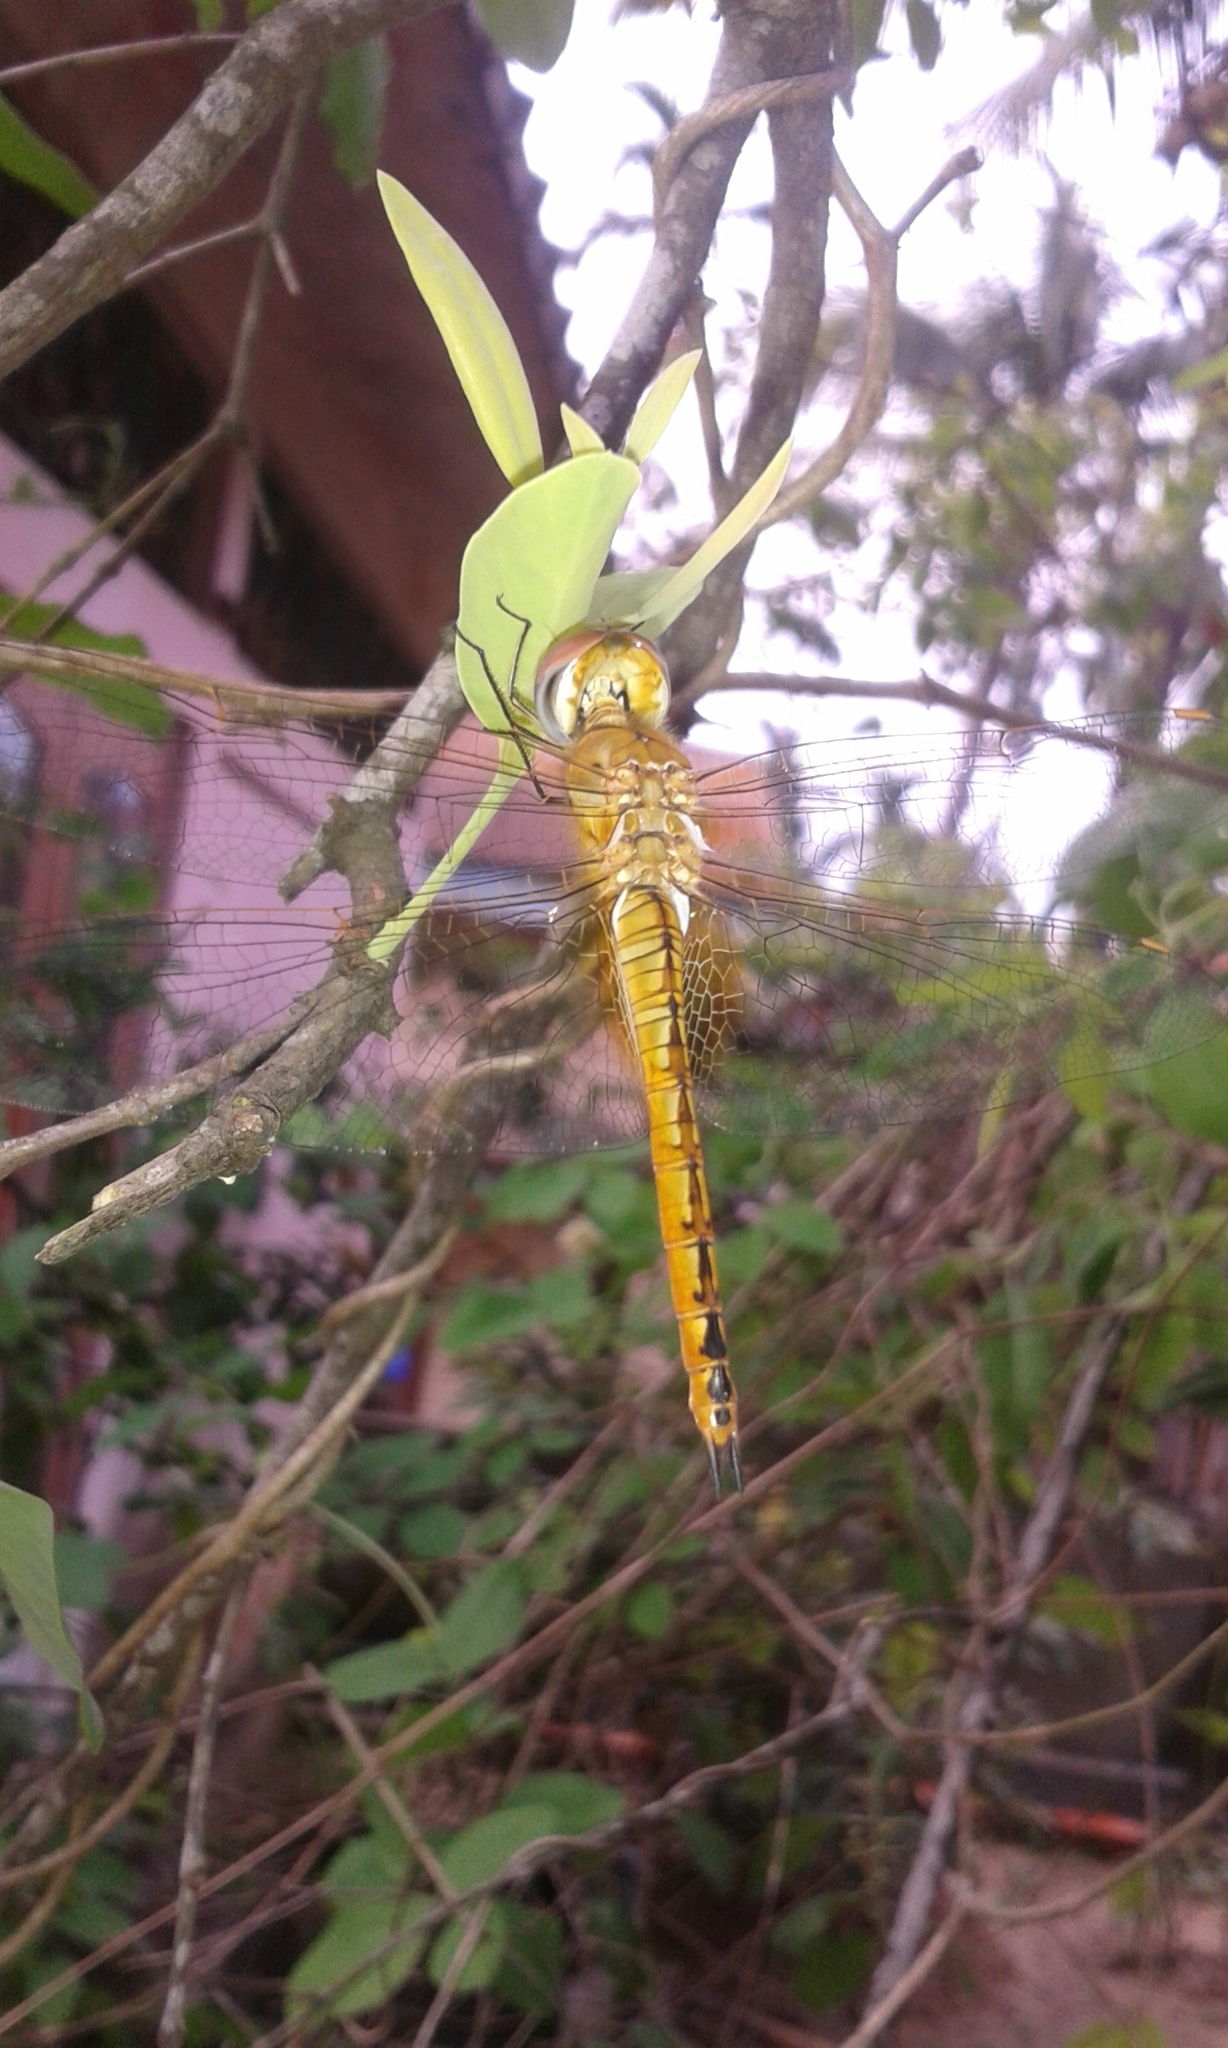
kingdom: Animalia
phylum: Arthropoda
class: Insecta
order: Odonata
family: Libellulidae
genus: Pantala
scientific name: Pantala flavescens
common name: Wandering glider
